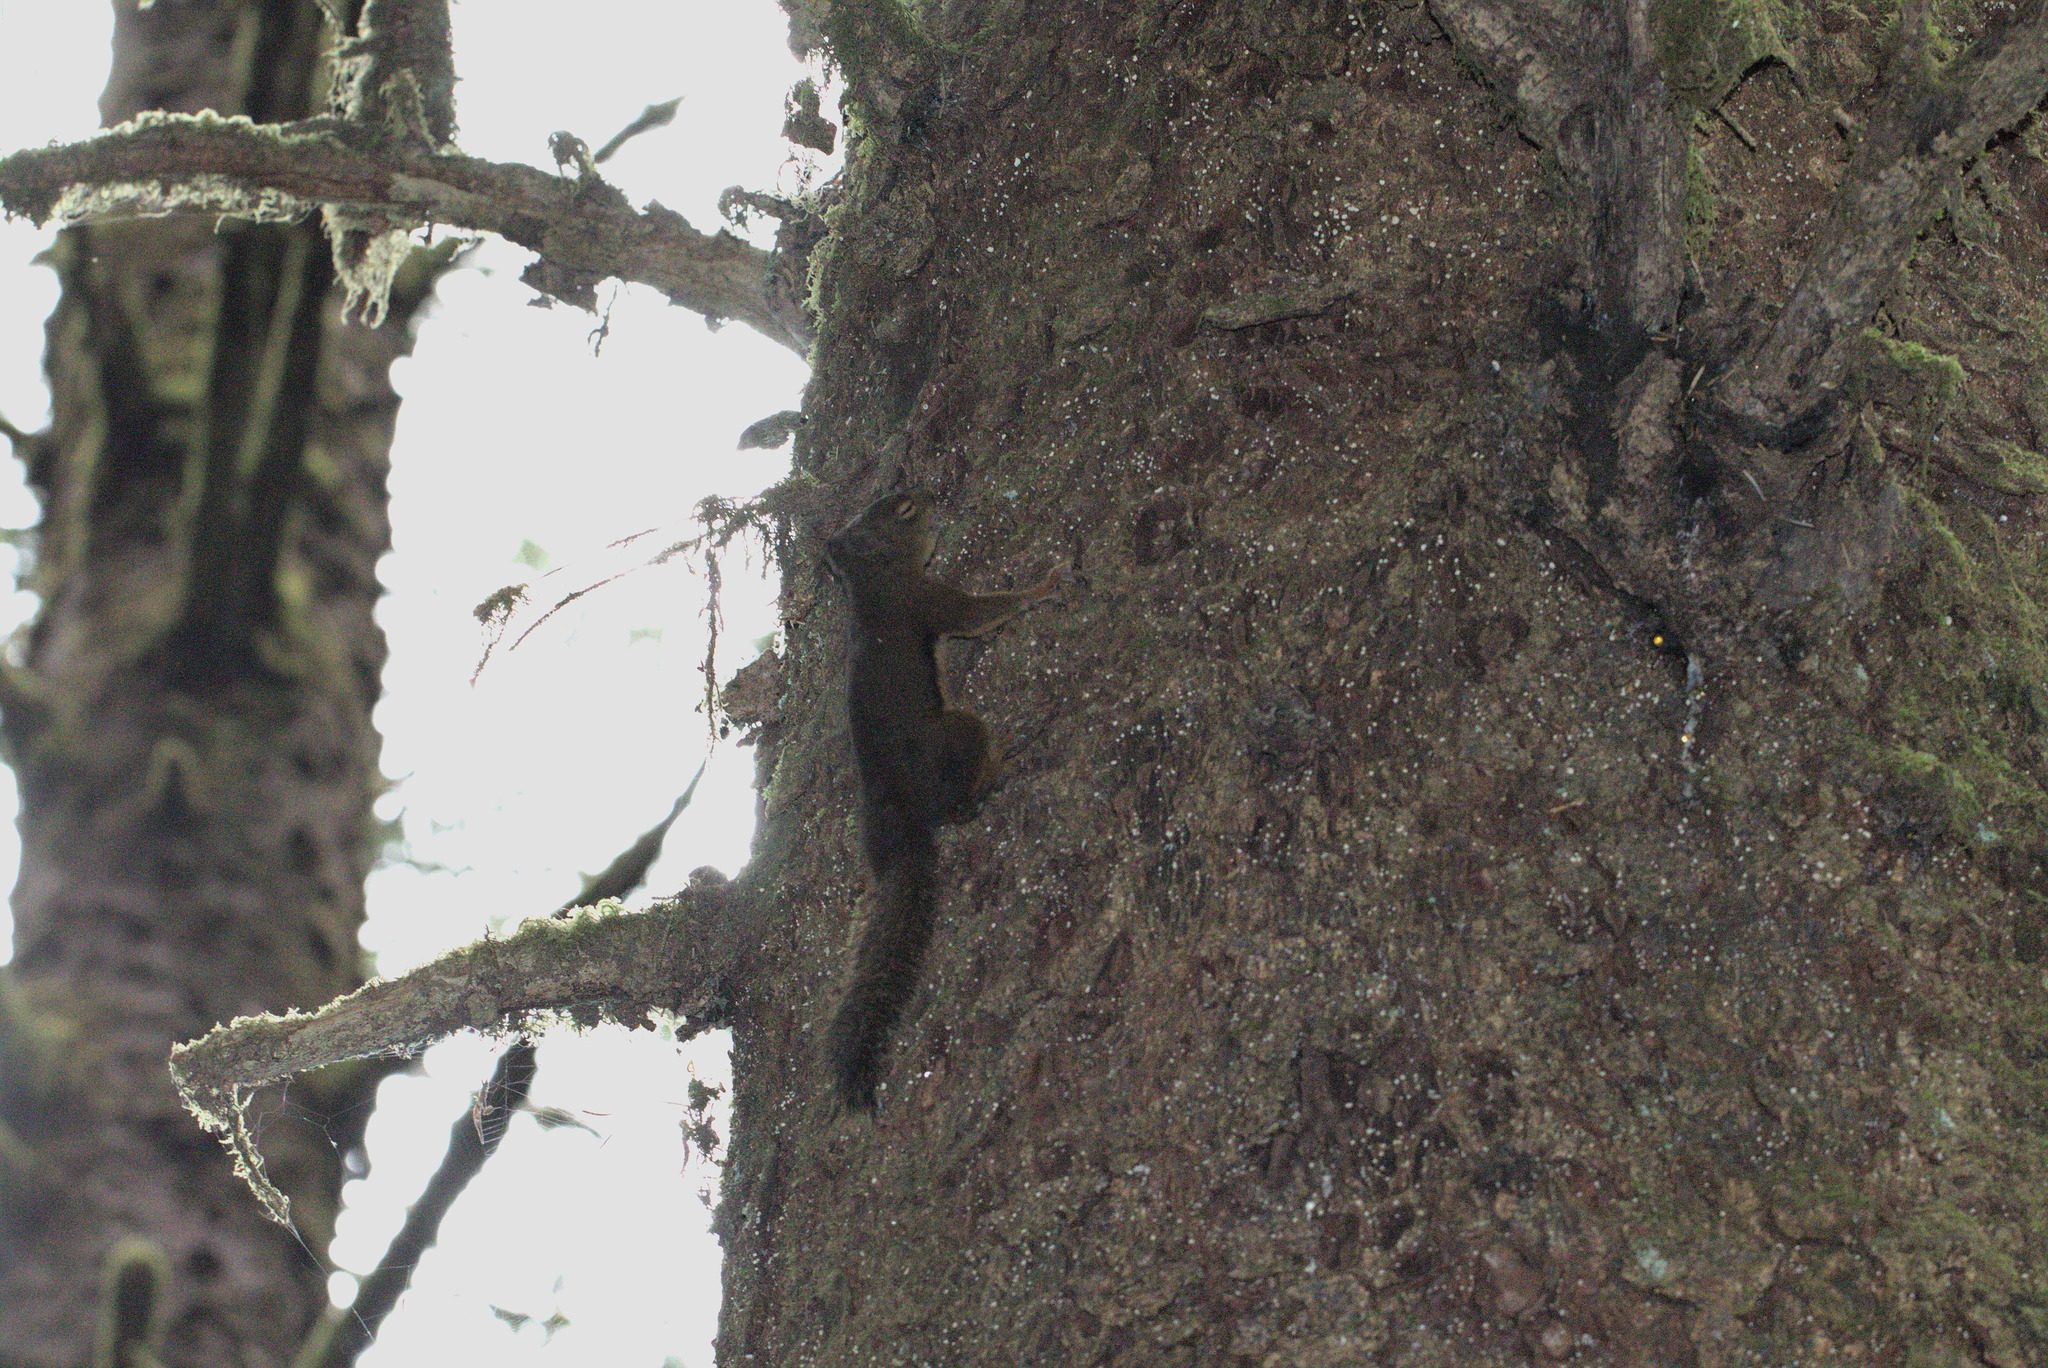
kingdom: Animalia
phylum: Chordata
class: Mammalia
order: Rodentia
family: Sciuridae
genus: Tamiasciurus
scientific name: Tamiasciurus douglasii
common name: Douglas's squirrel
